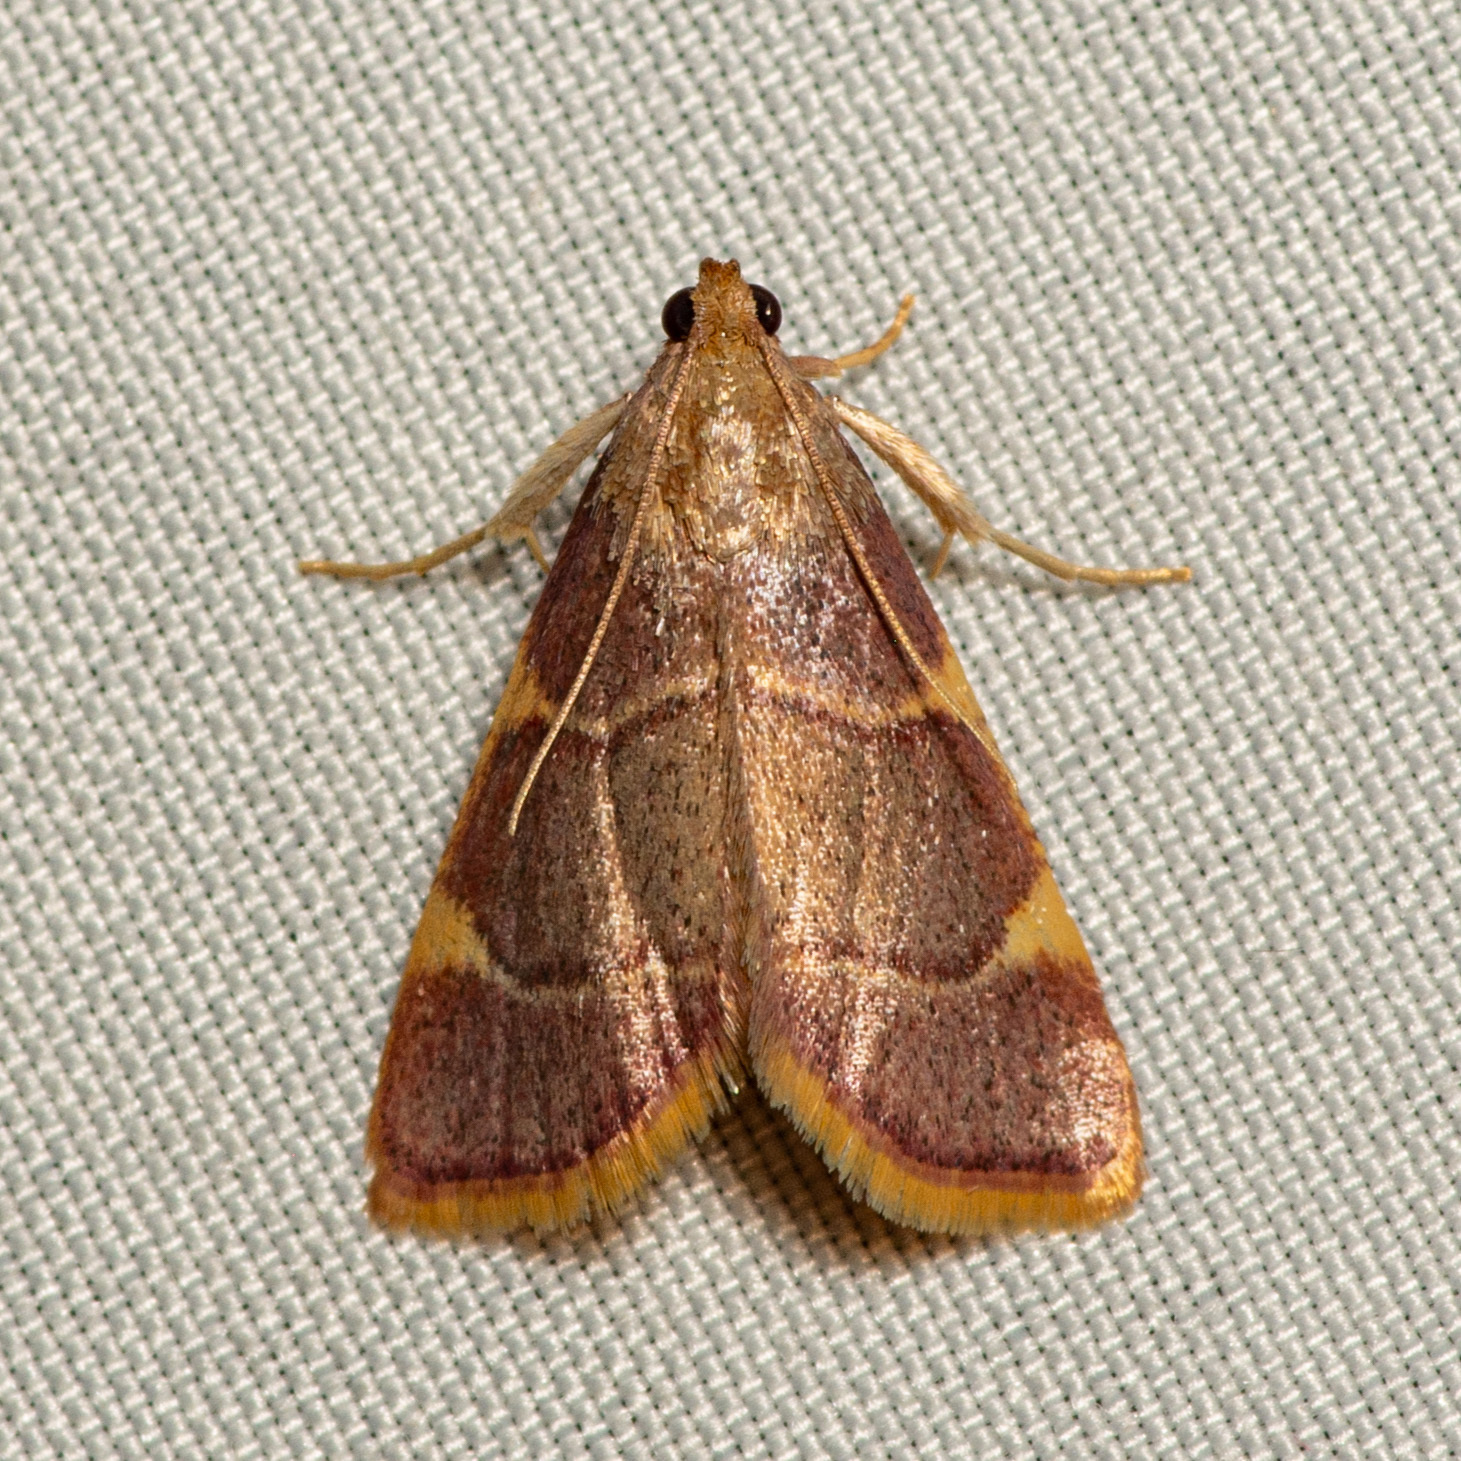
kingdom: Animalia
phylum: Arthropoda
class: Insecta
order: Lepidoptera
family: Pyralidae
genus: Hypsopygia
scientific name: Hypsopygia olinalis
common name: Yellow-fringed dolichomia moth
